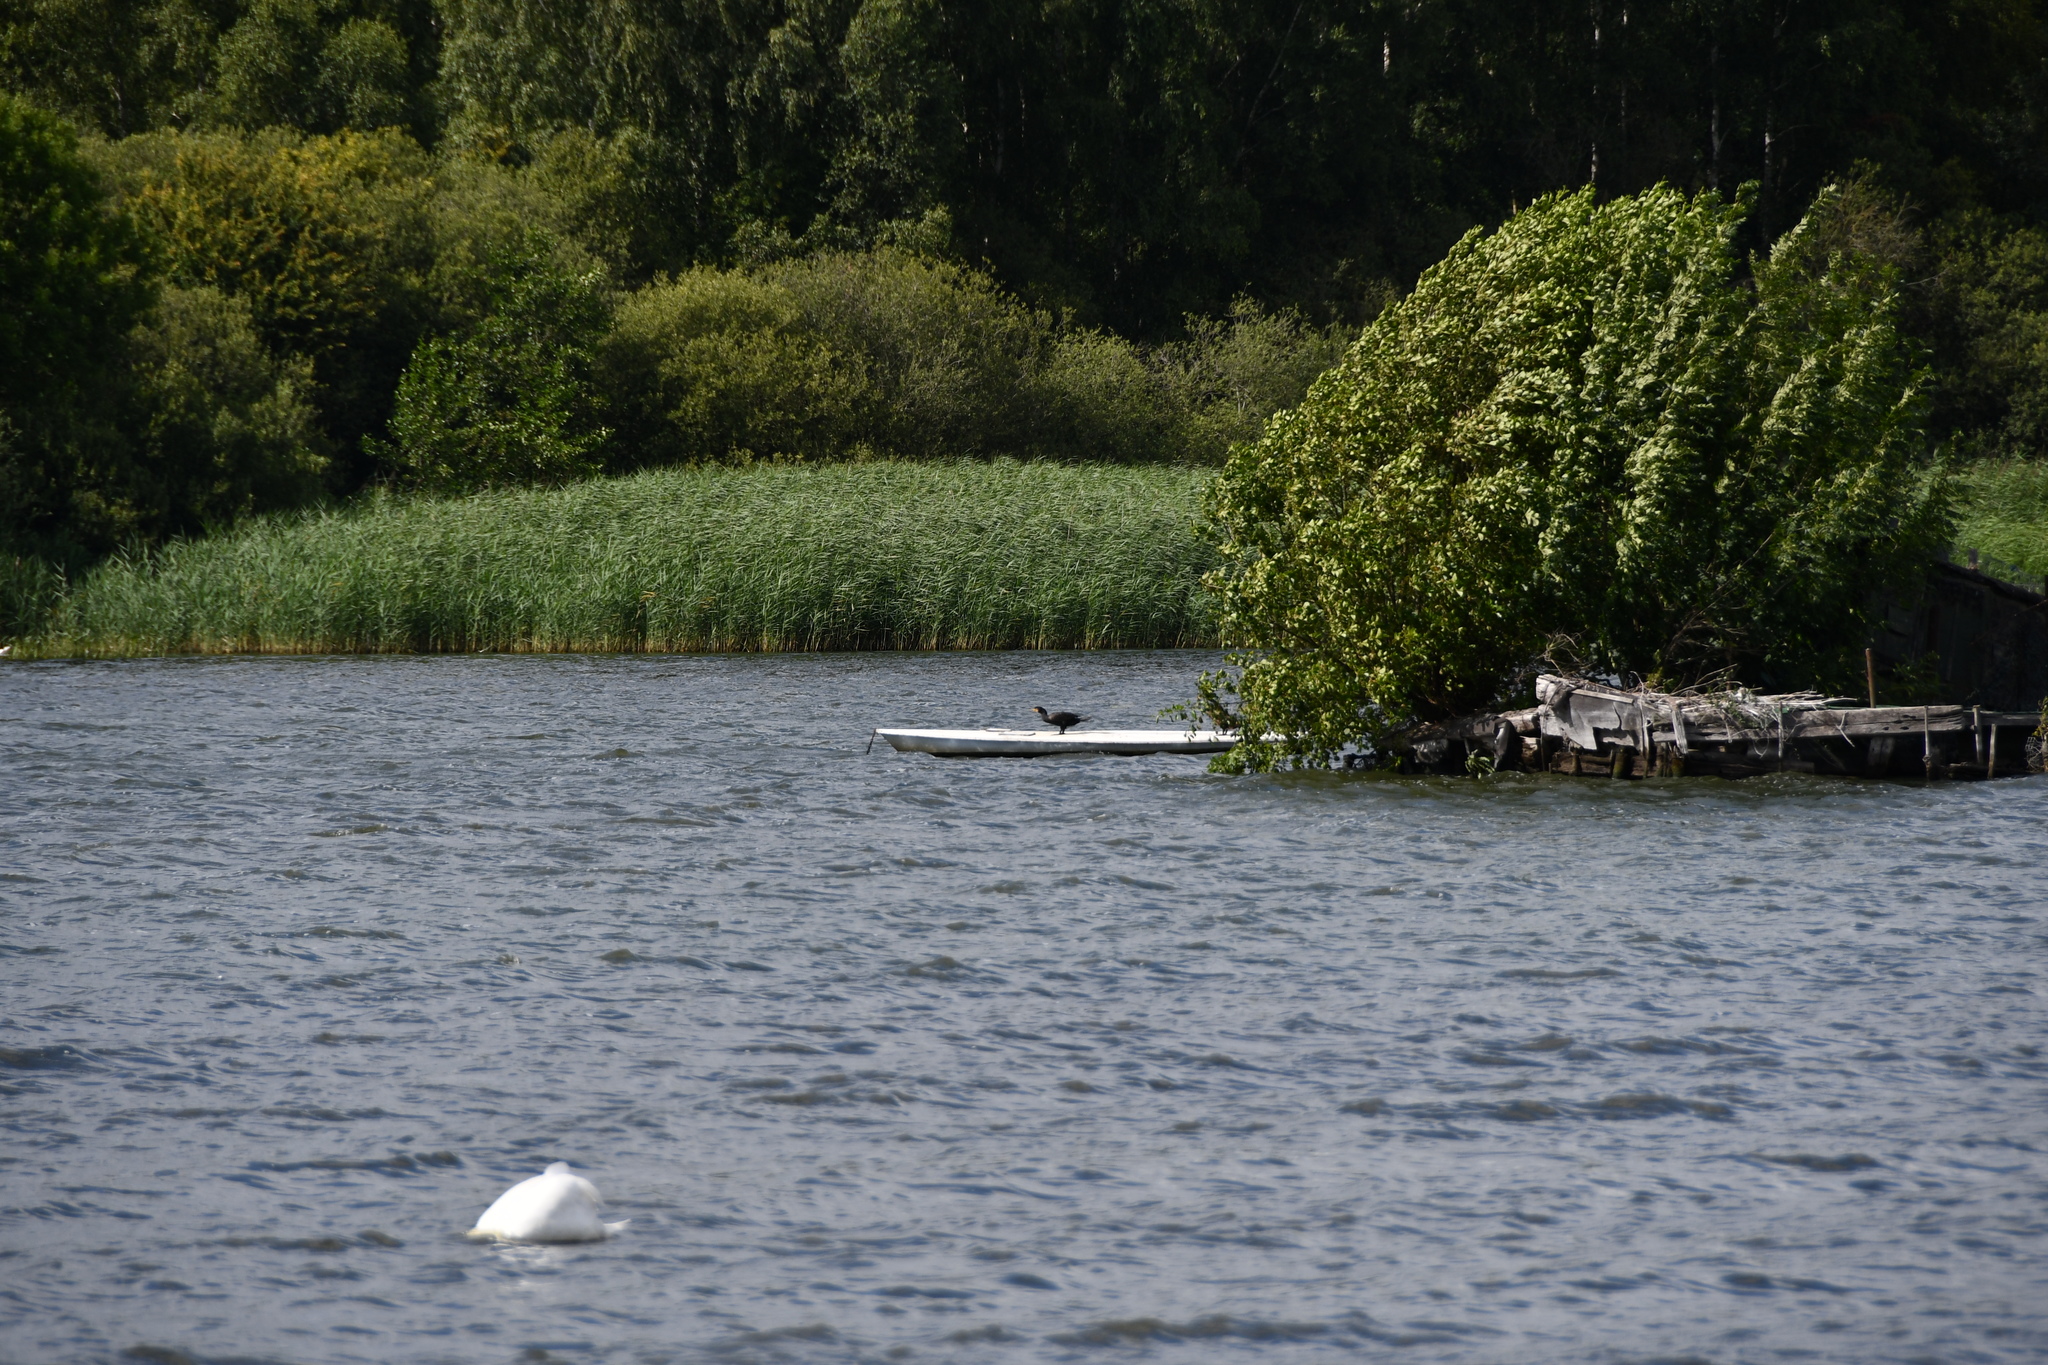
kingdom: Animalia
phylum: Chordata
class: Aves
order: Suliformes
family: Phalacrocoracidae
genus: Phalacrocorax
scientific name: Phalacrocorax carbo
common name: Great cormorant
